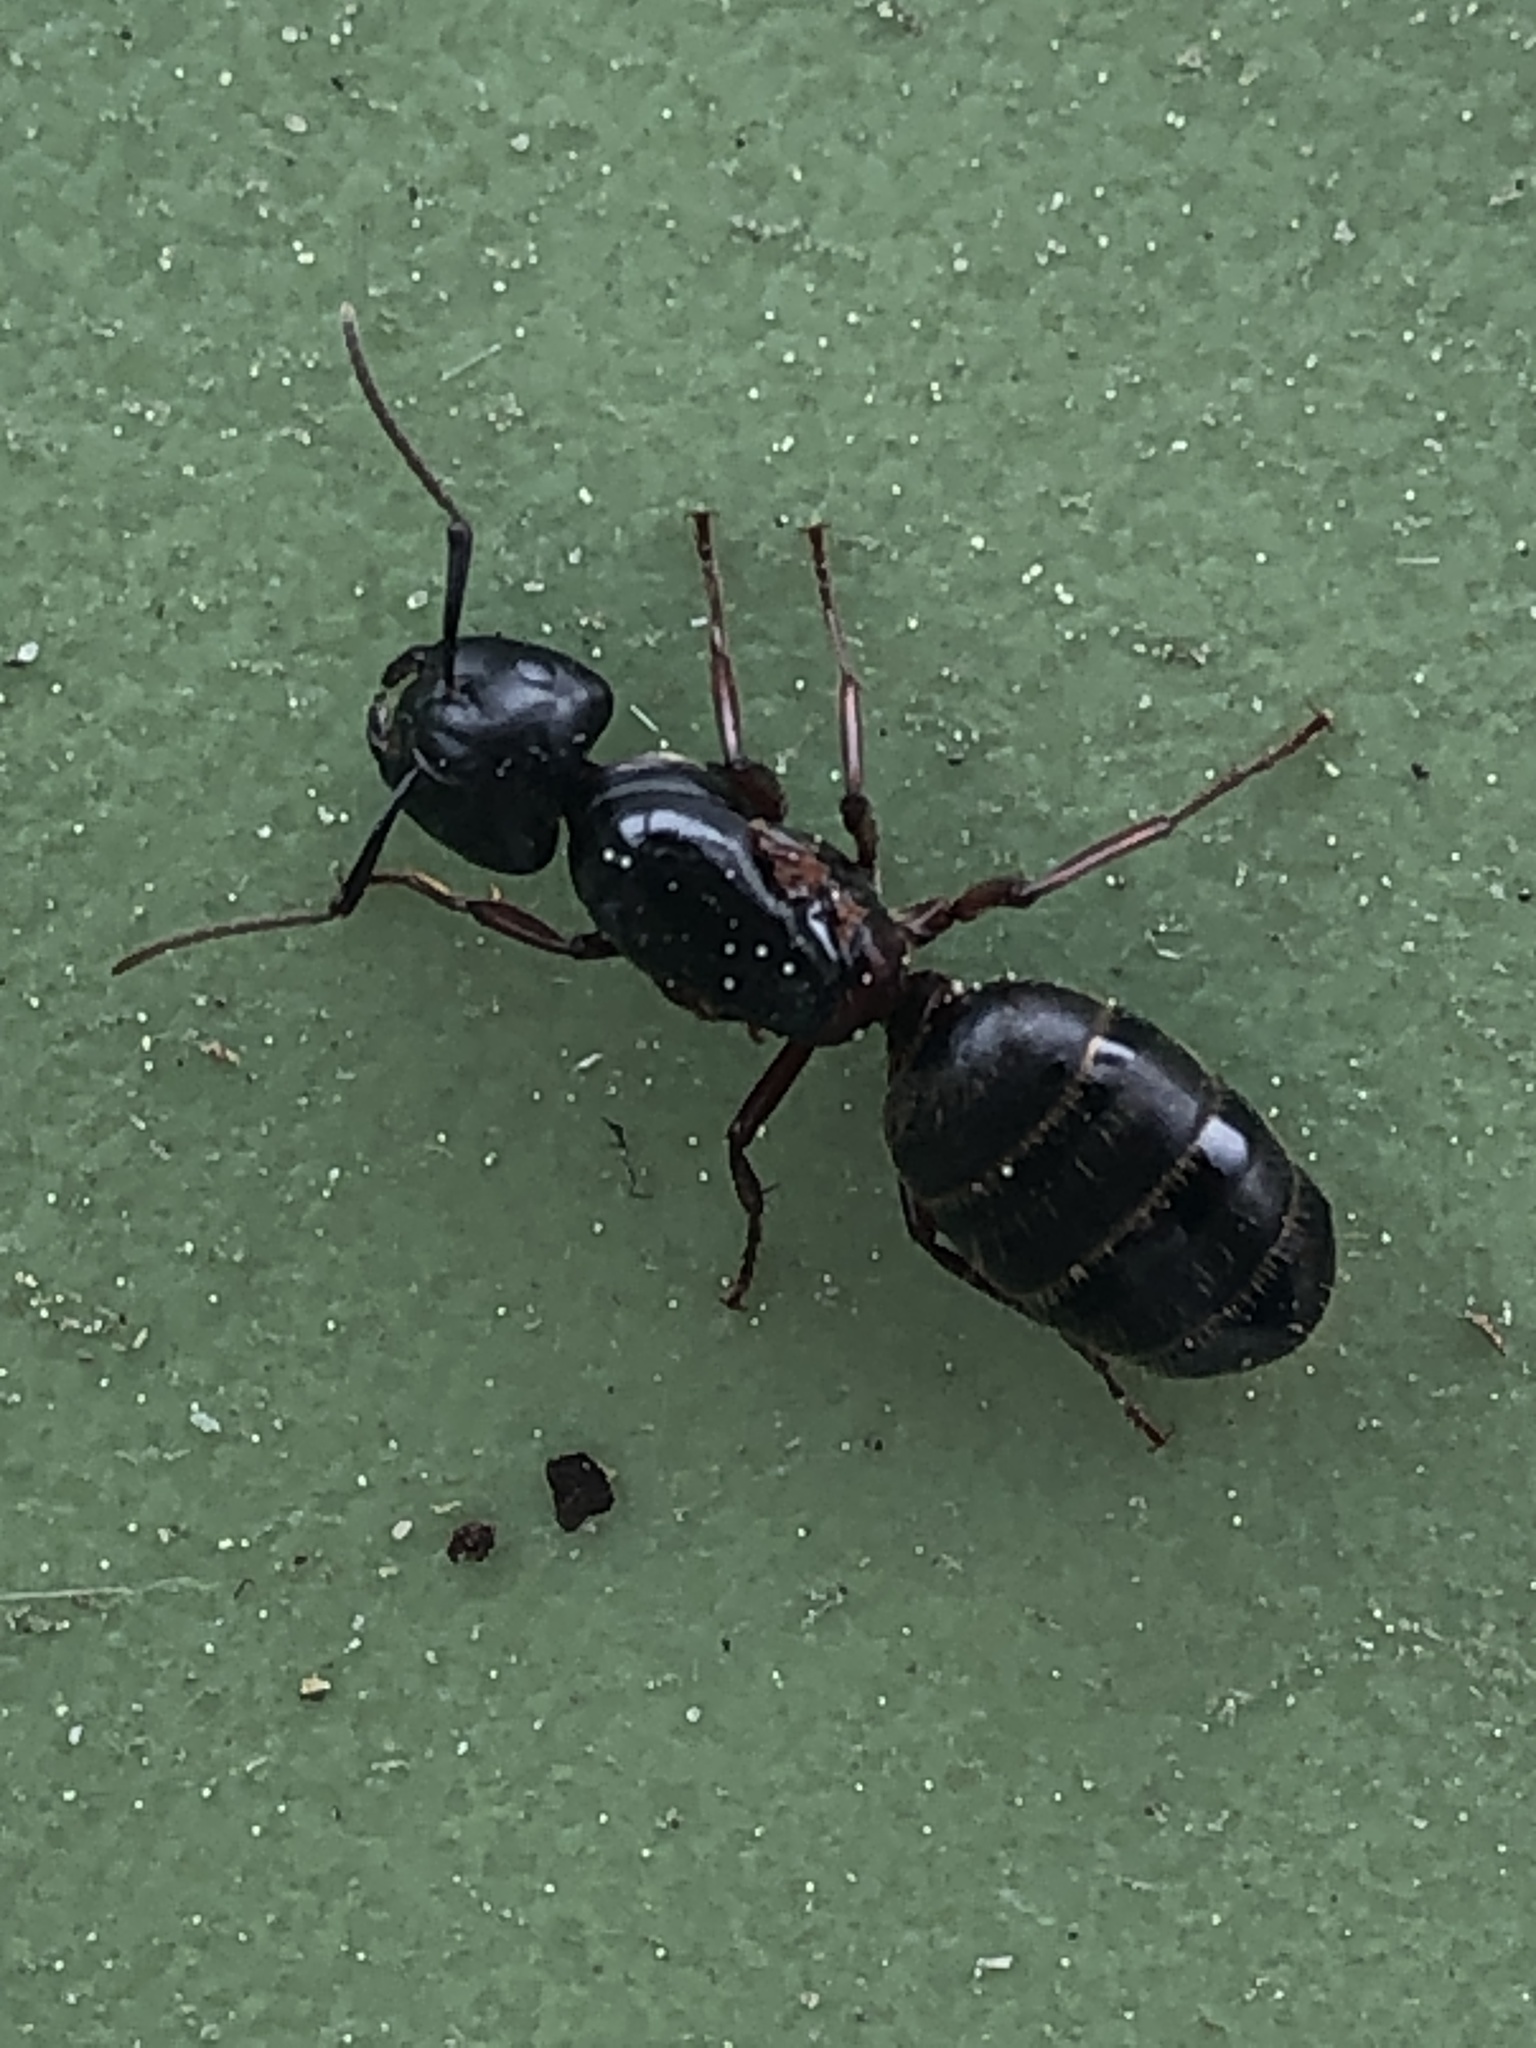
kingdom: Animalia
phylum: Arthropoda
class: Insecta
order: Hymenoptera
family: Formicidae
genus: Camponotus
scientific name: Camponotus herculeanus
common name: Hercules ant
